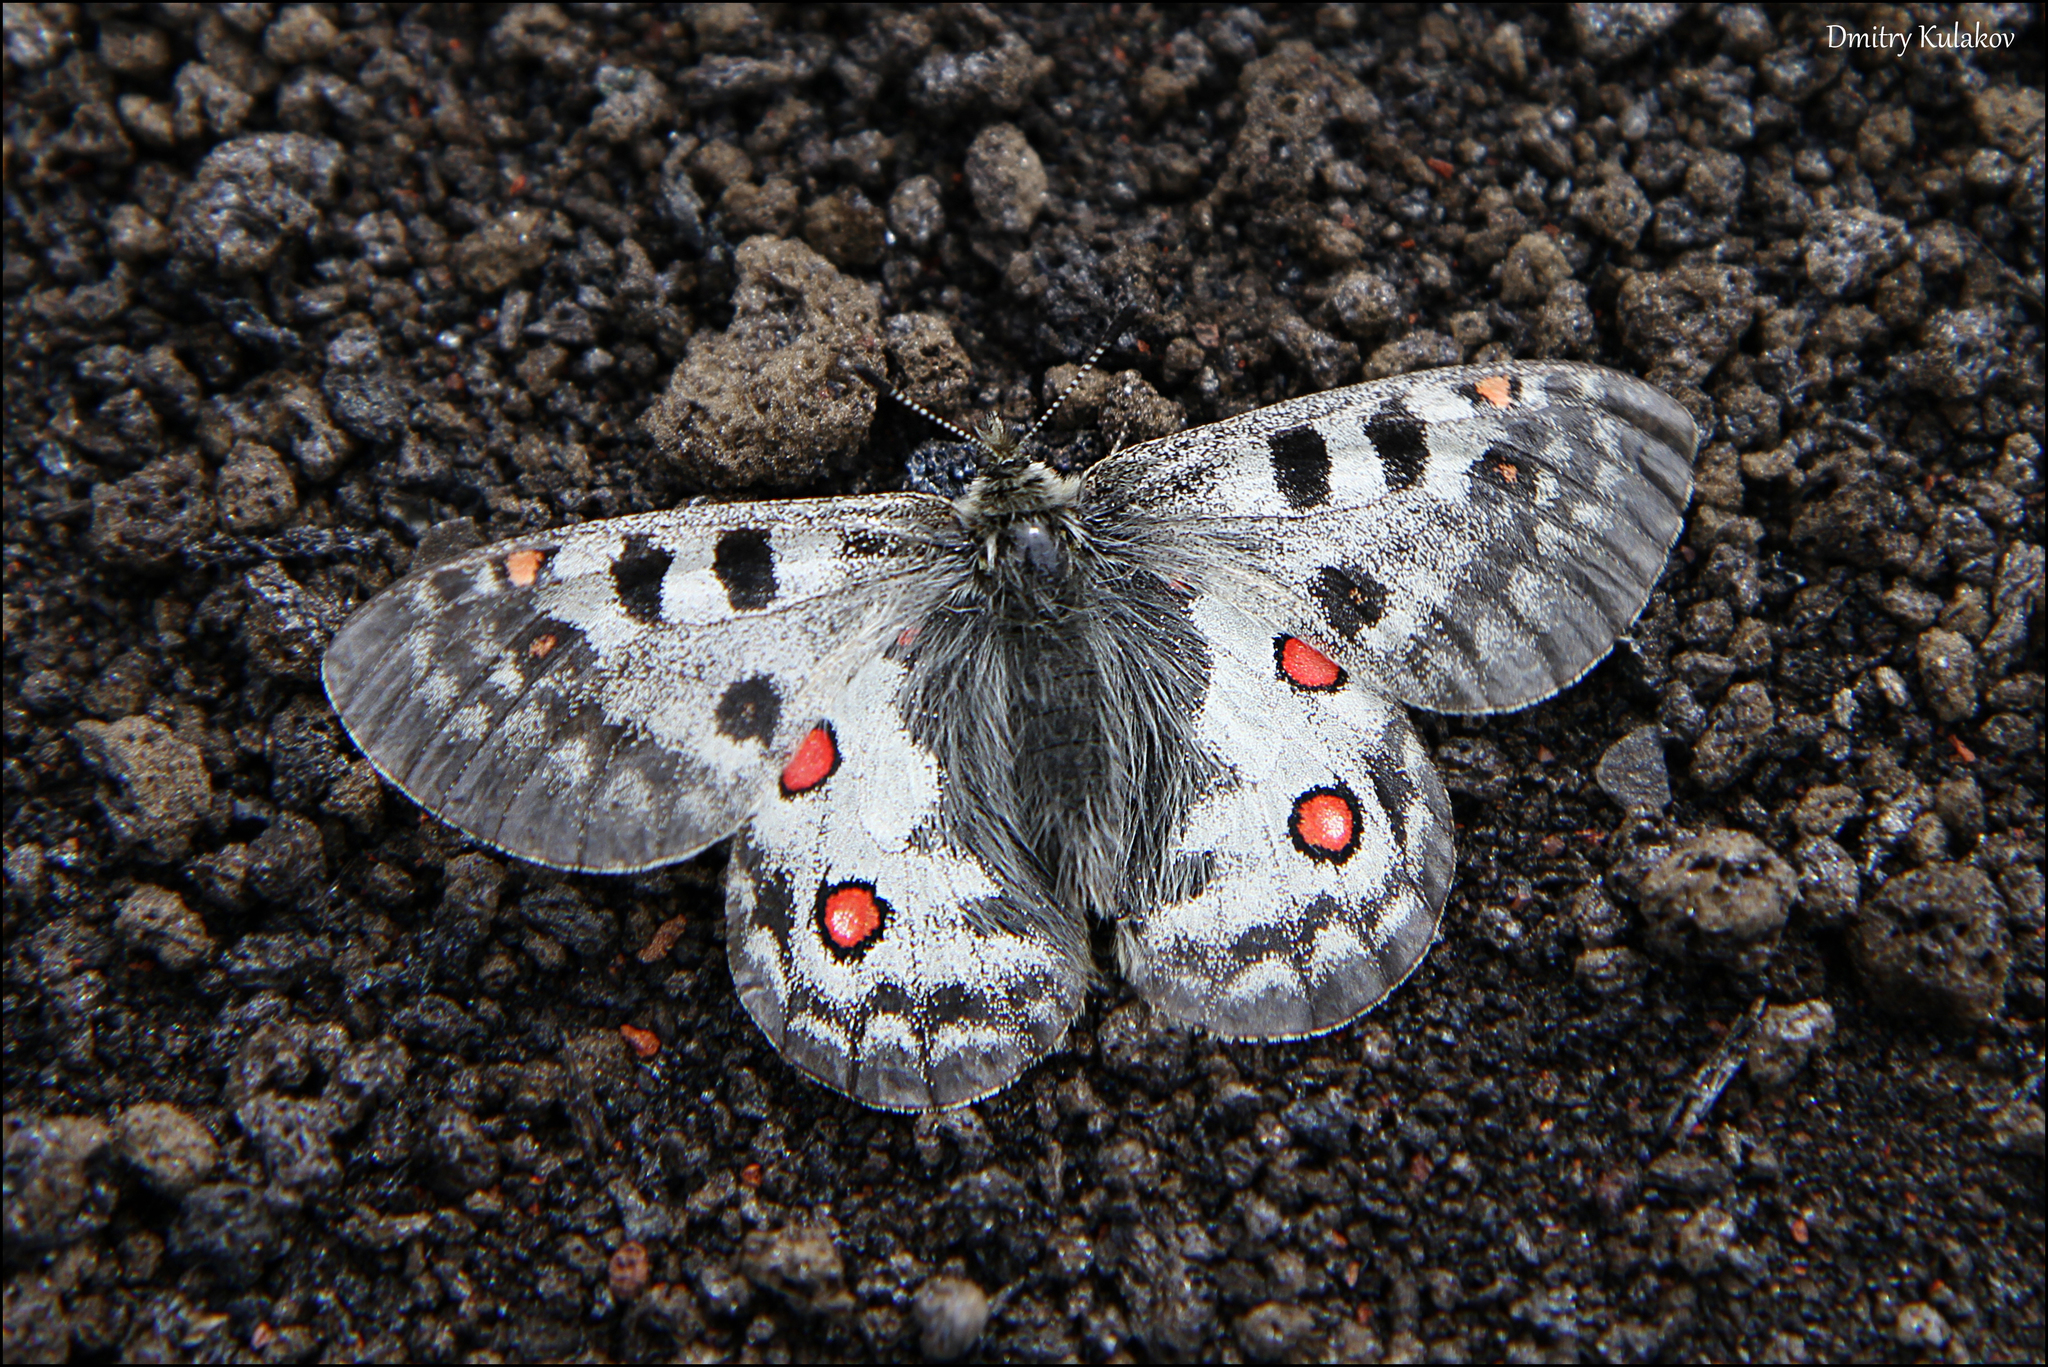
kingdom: Animalia
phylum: Arthropoda
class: Insecta
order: Lepidoptera
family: Papilionidae
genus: Parnassius
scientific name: Parnassius phoebus
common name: Small apollo
